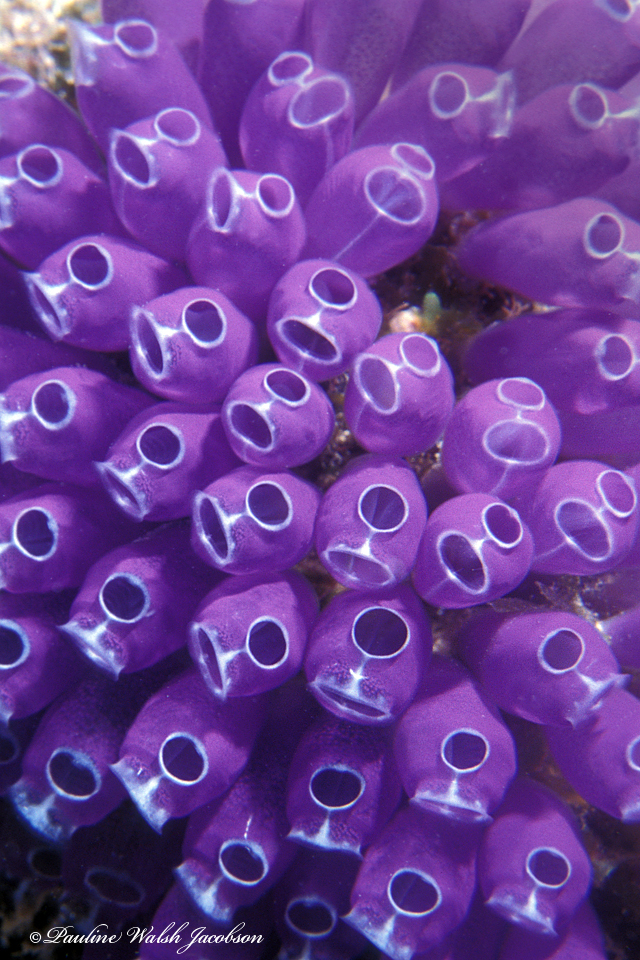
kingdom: Animalia
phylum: Chordata
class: Ascidiacea
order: Aplousobranchia
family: Clavelinidae
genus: Clavelina
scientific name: Clavelina puertosecensis
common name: Blue bell tunicate
